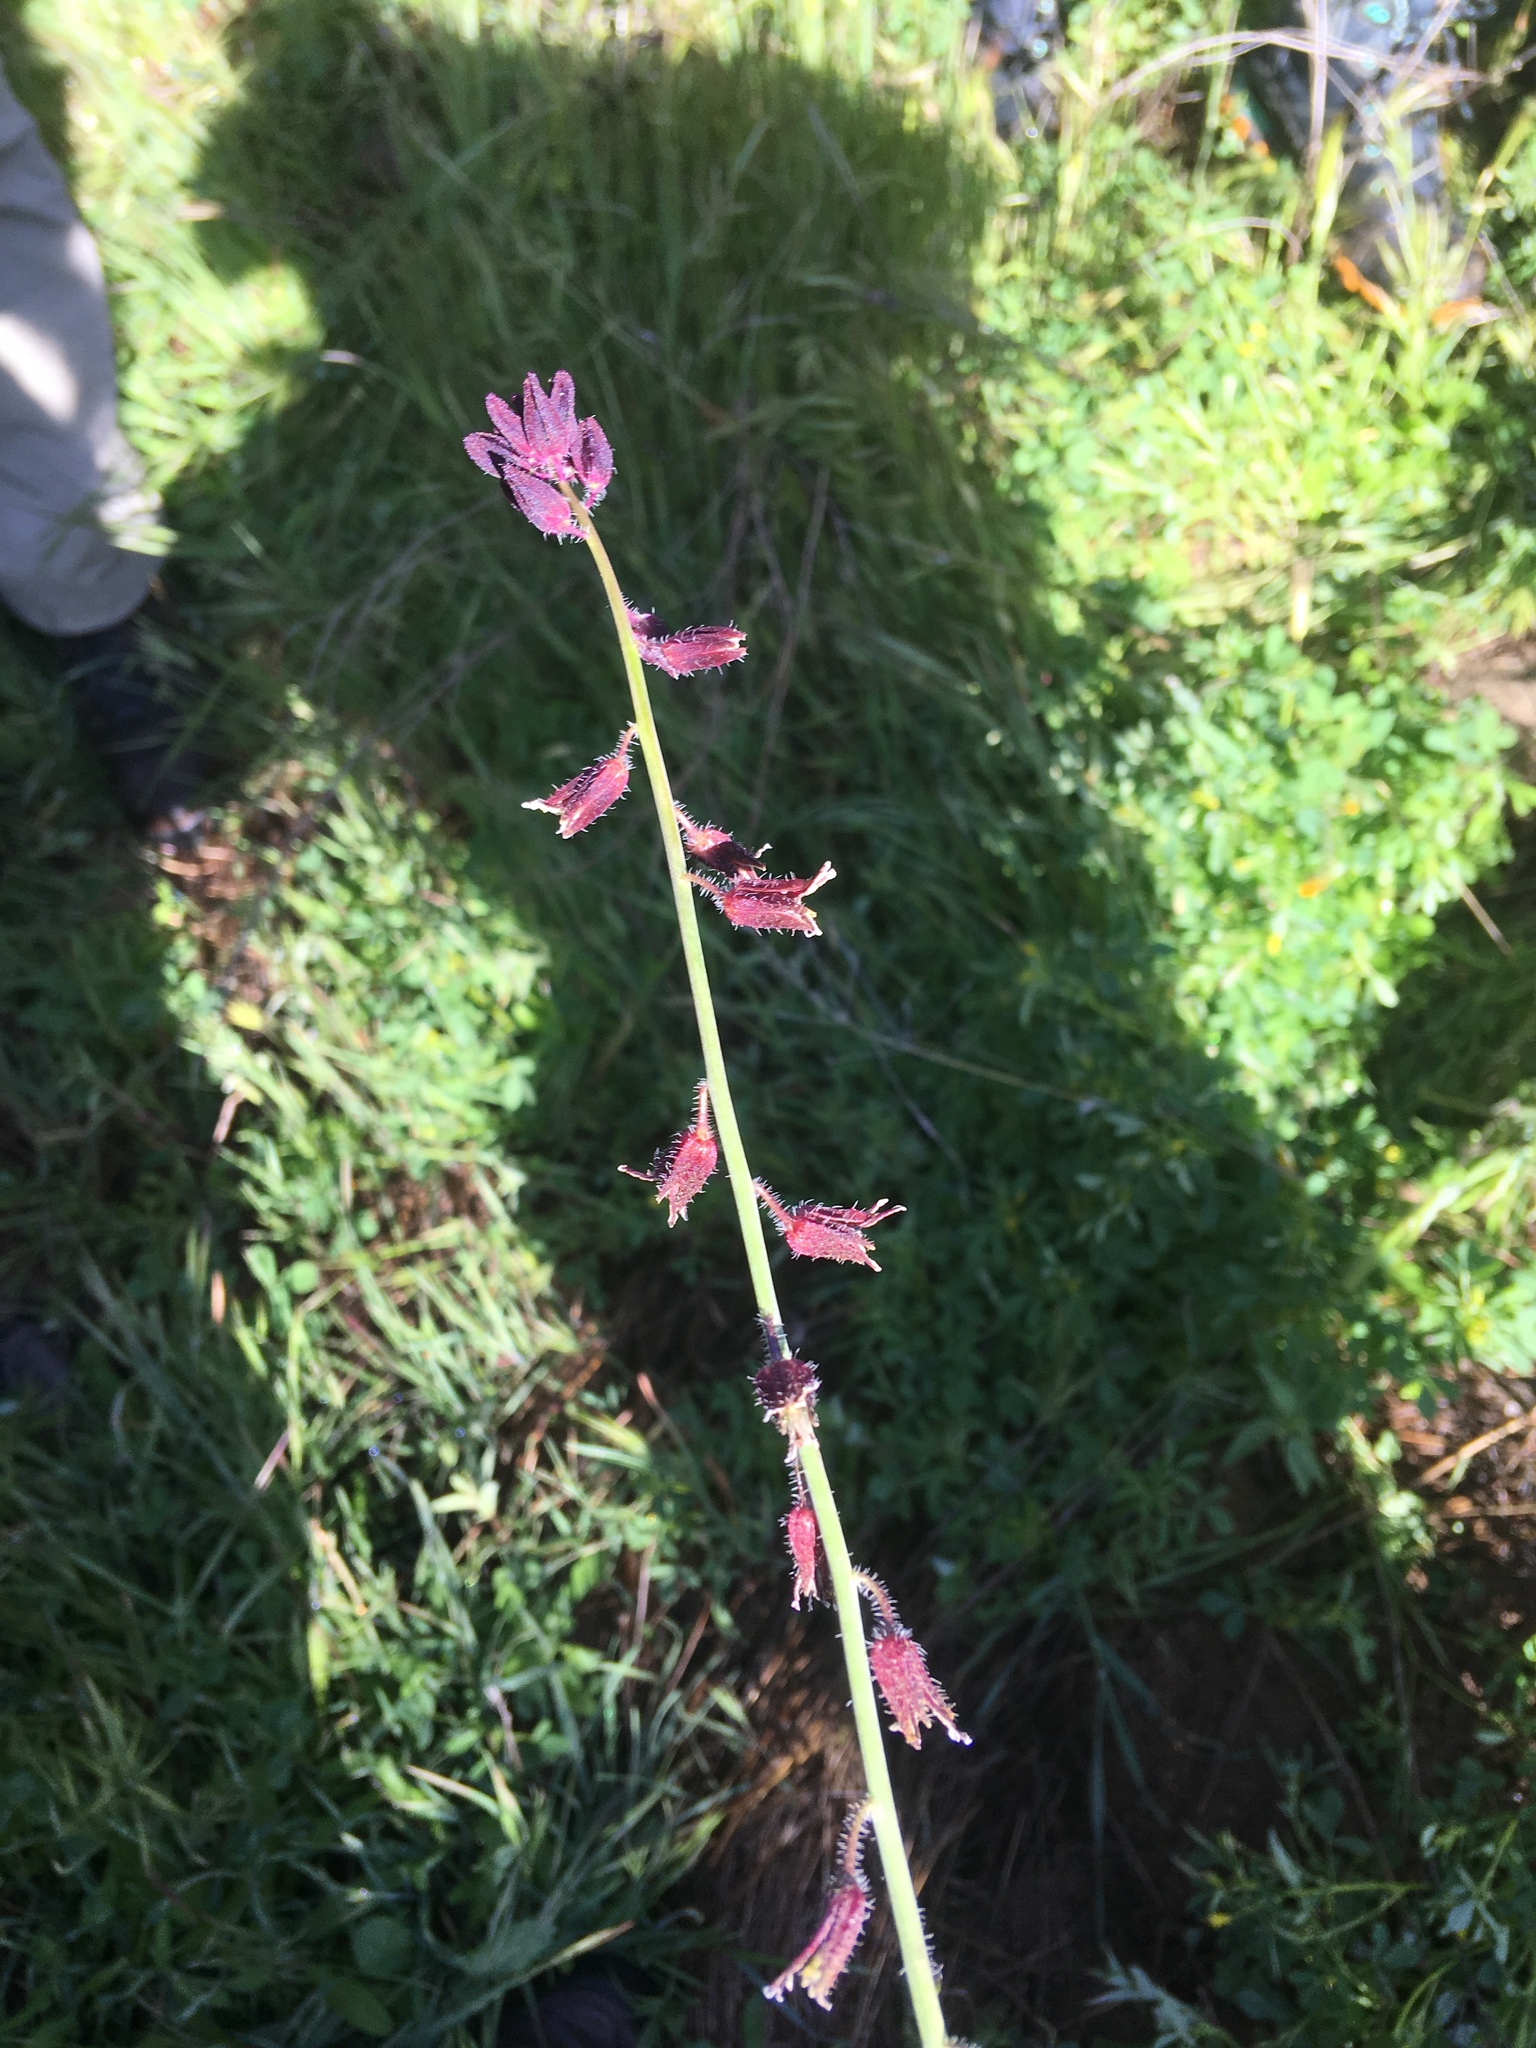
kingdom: Plantae
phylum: Tracheophyta
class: Magnoliopsida
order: Brassicales
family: Brassicaceae
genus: Streptanthus
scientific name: Streptanthus coulteri
